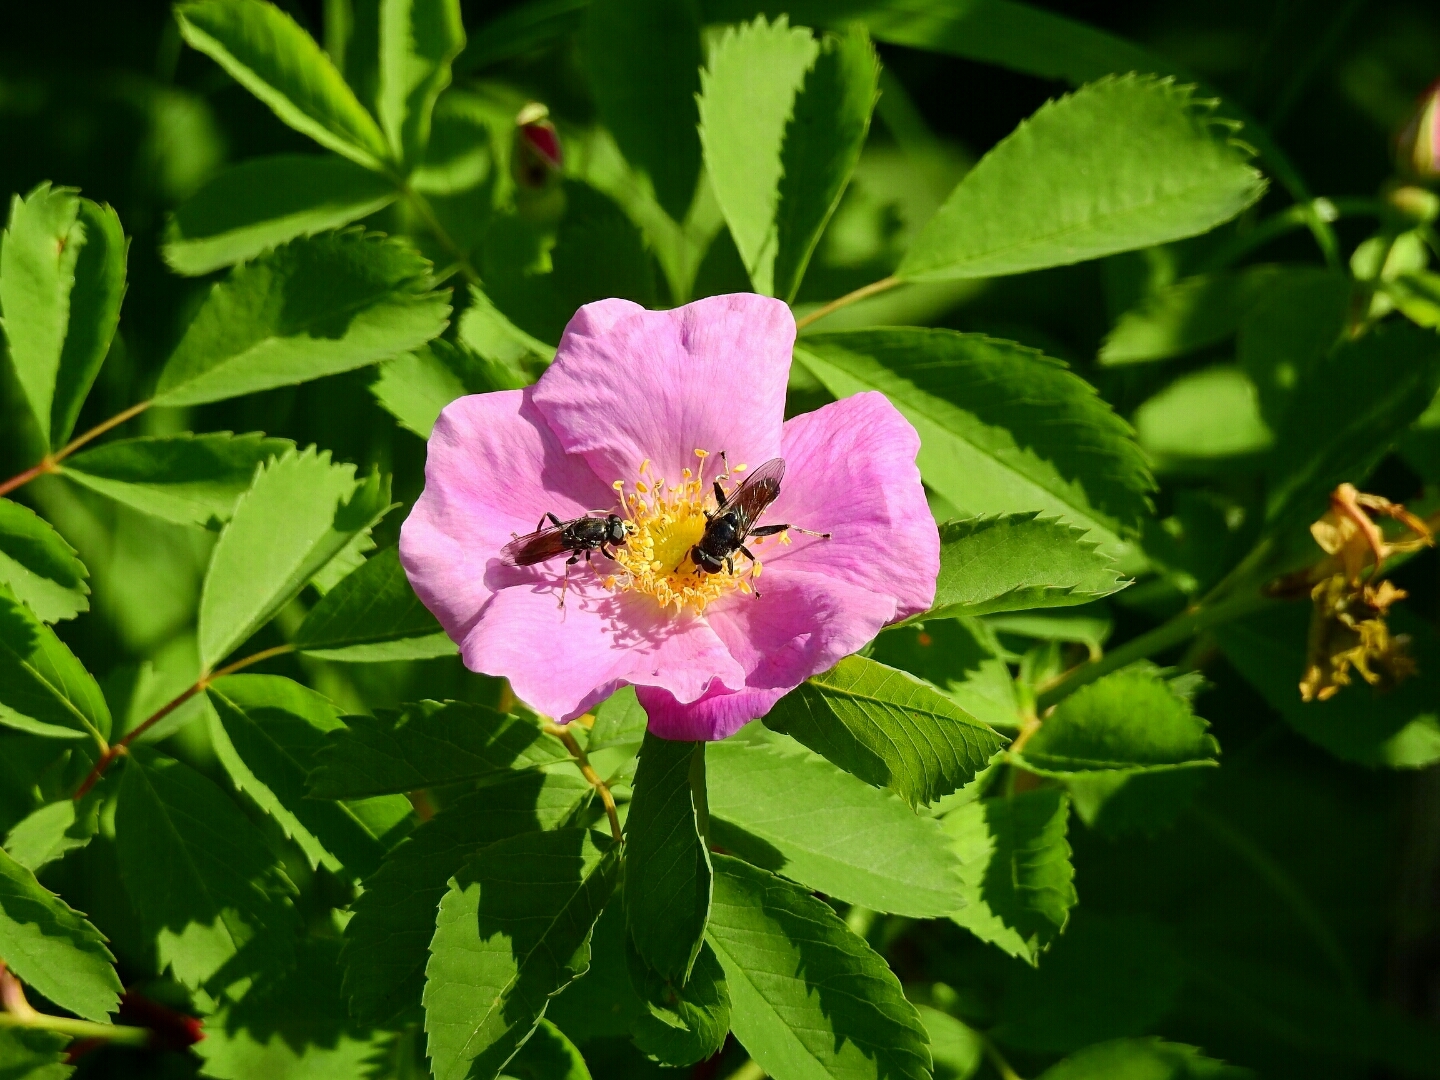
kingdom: Animalia
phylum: Arthropoda
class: Insecta
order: Diptera
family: Syrphidae
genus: Xylota
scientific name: Xylota flavitibia
